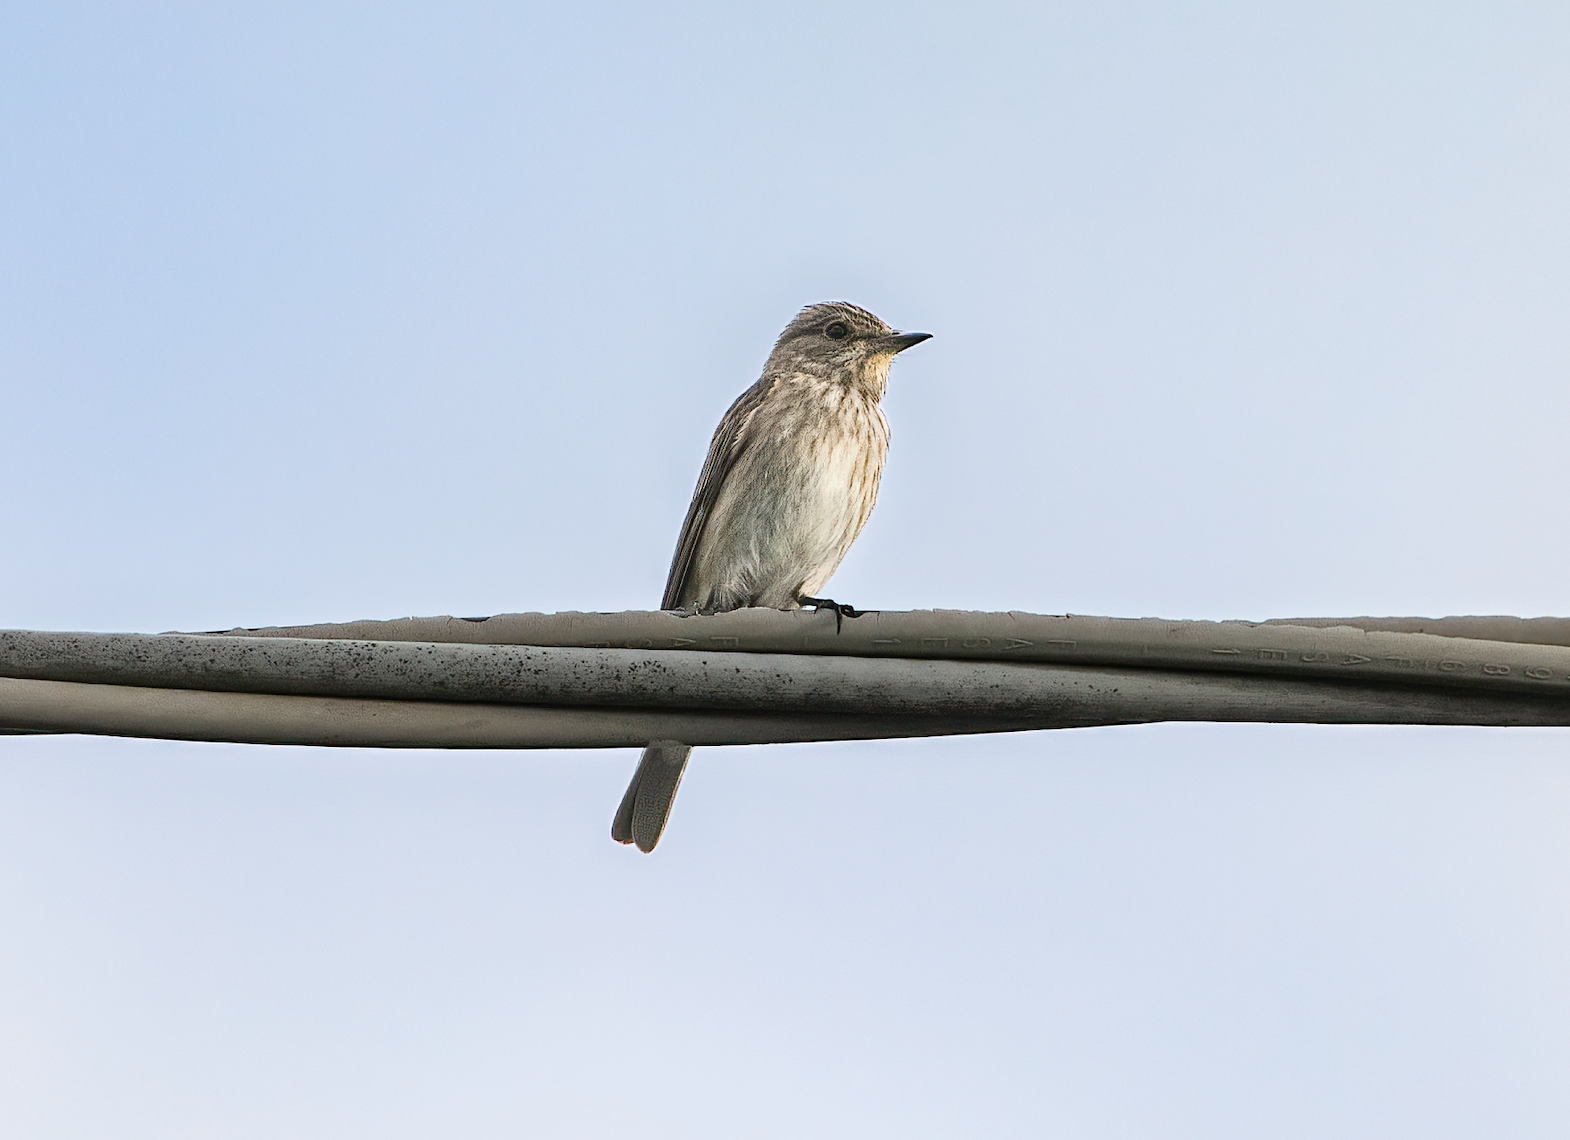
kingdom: Animalia
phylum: Chordata
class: Aves
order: Passeriformes
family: Muscicapidae
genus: Muscicapa
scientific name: Muscicapa striata
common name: Spotted flycatcher
